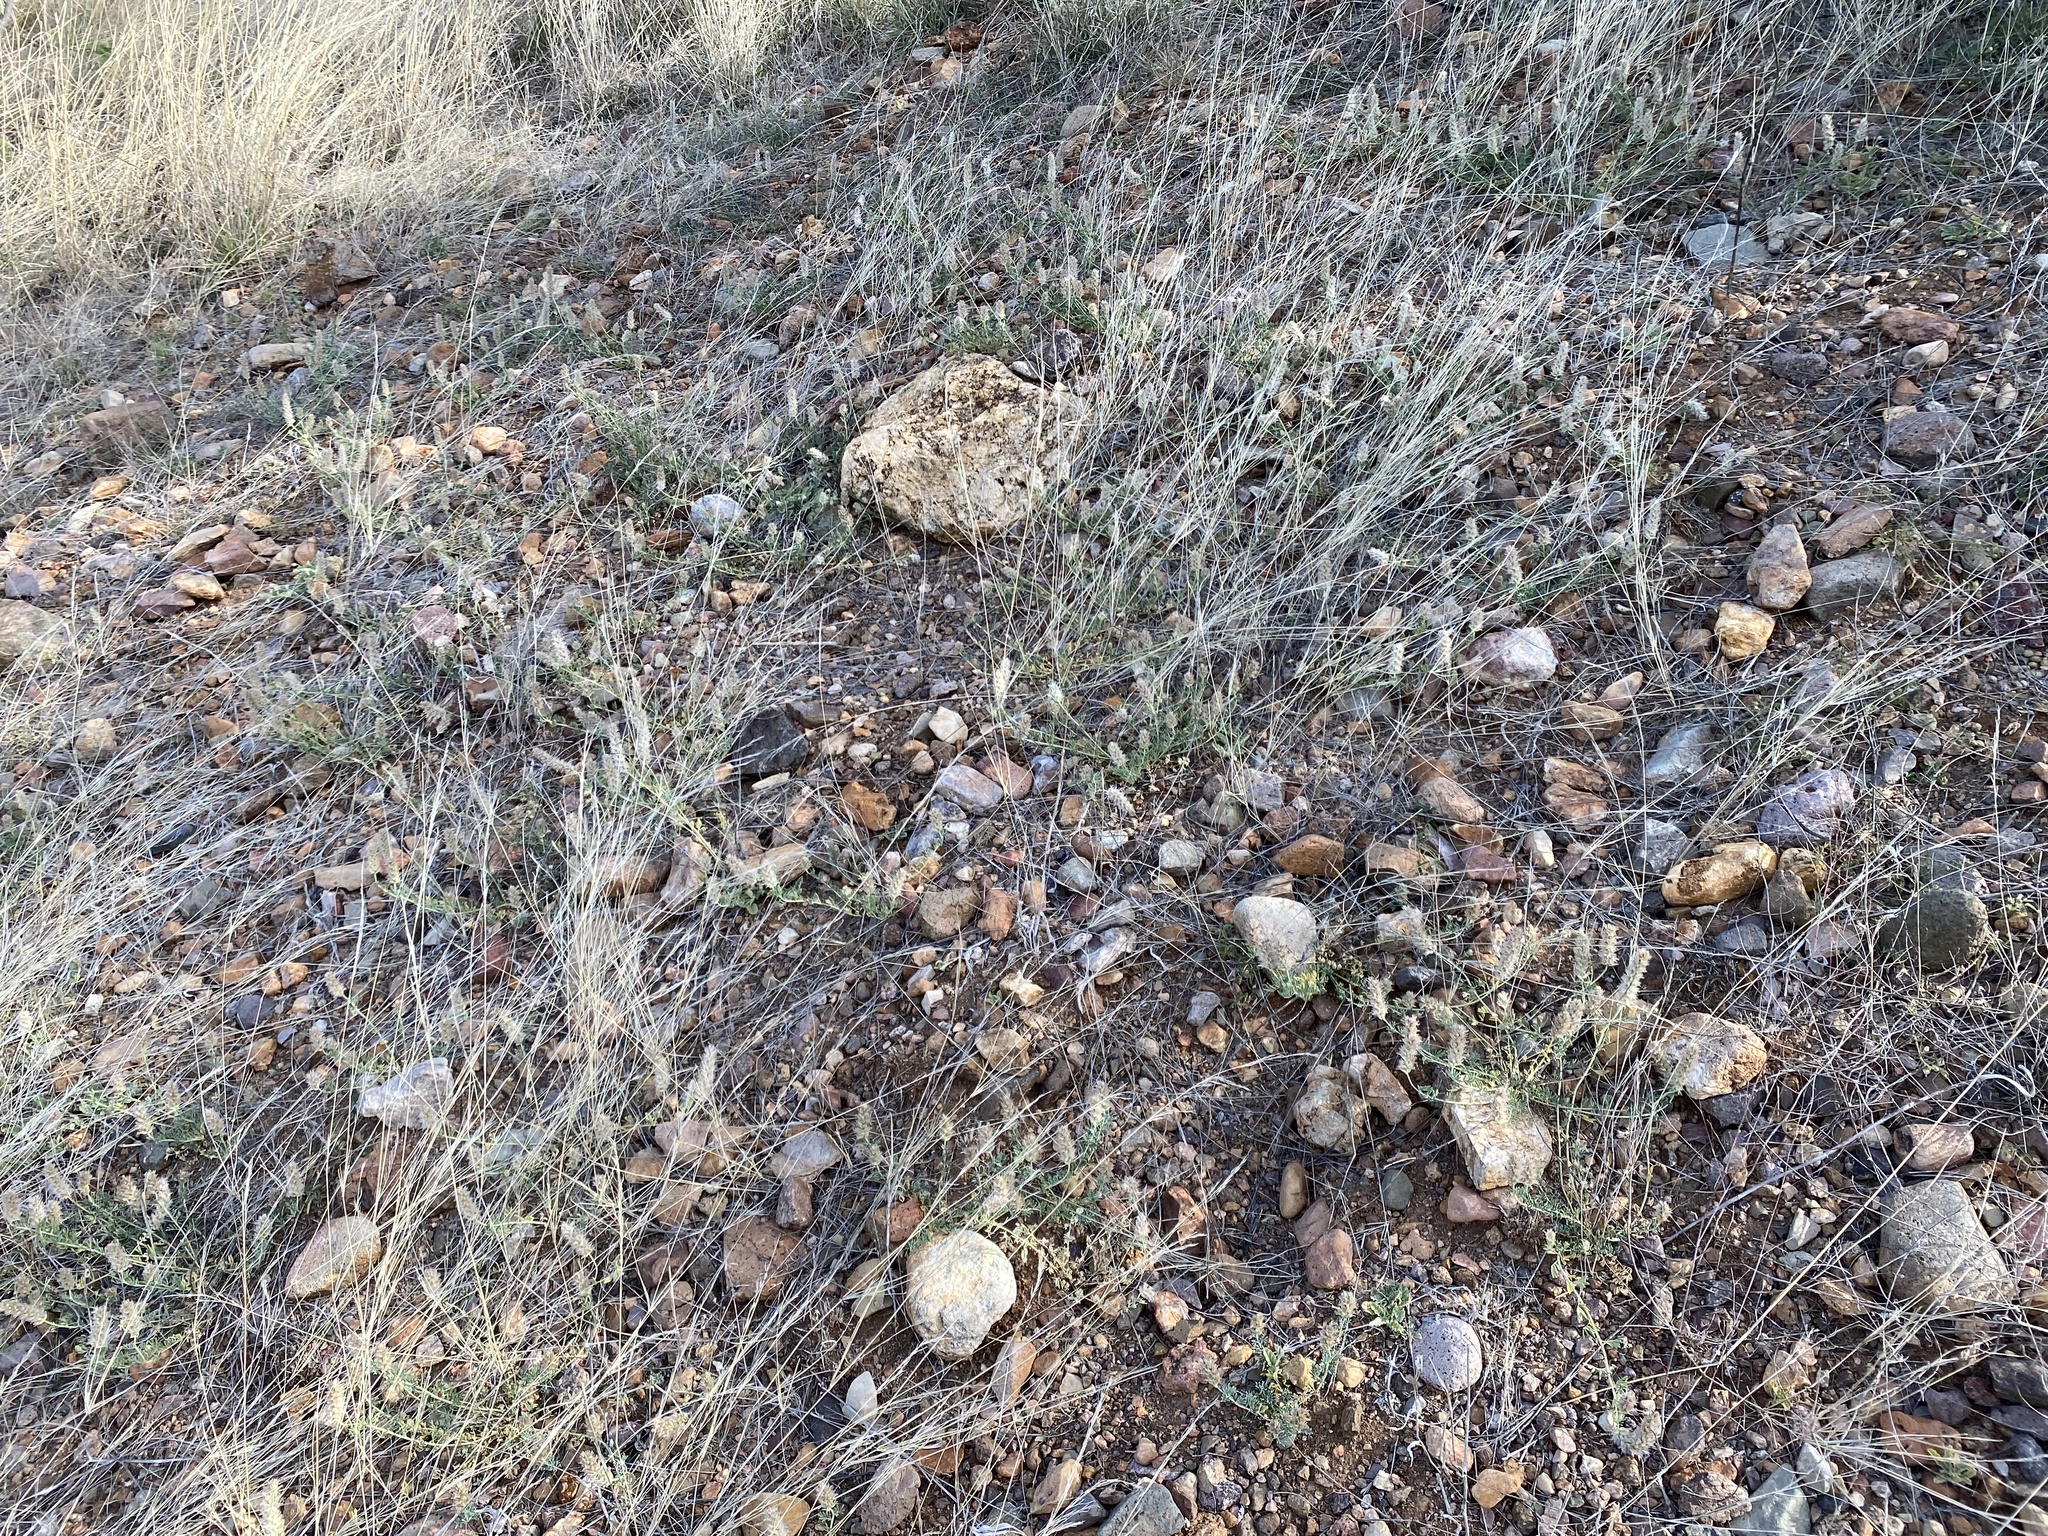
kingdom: Plantae
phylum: Tracheophyta
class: Magnoliopsida
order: Fabales
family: Fabaceae
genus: Dalea
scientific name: Dalea pogonathera
